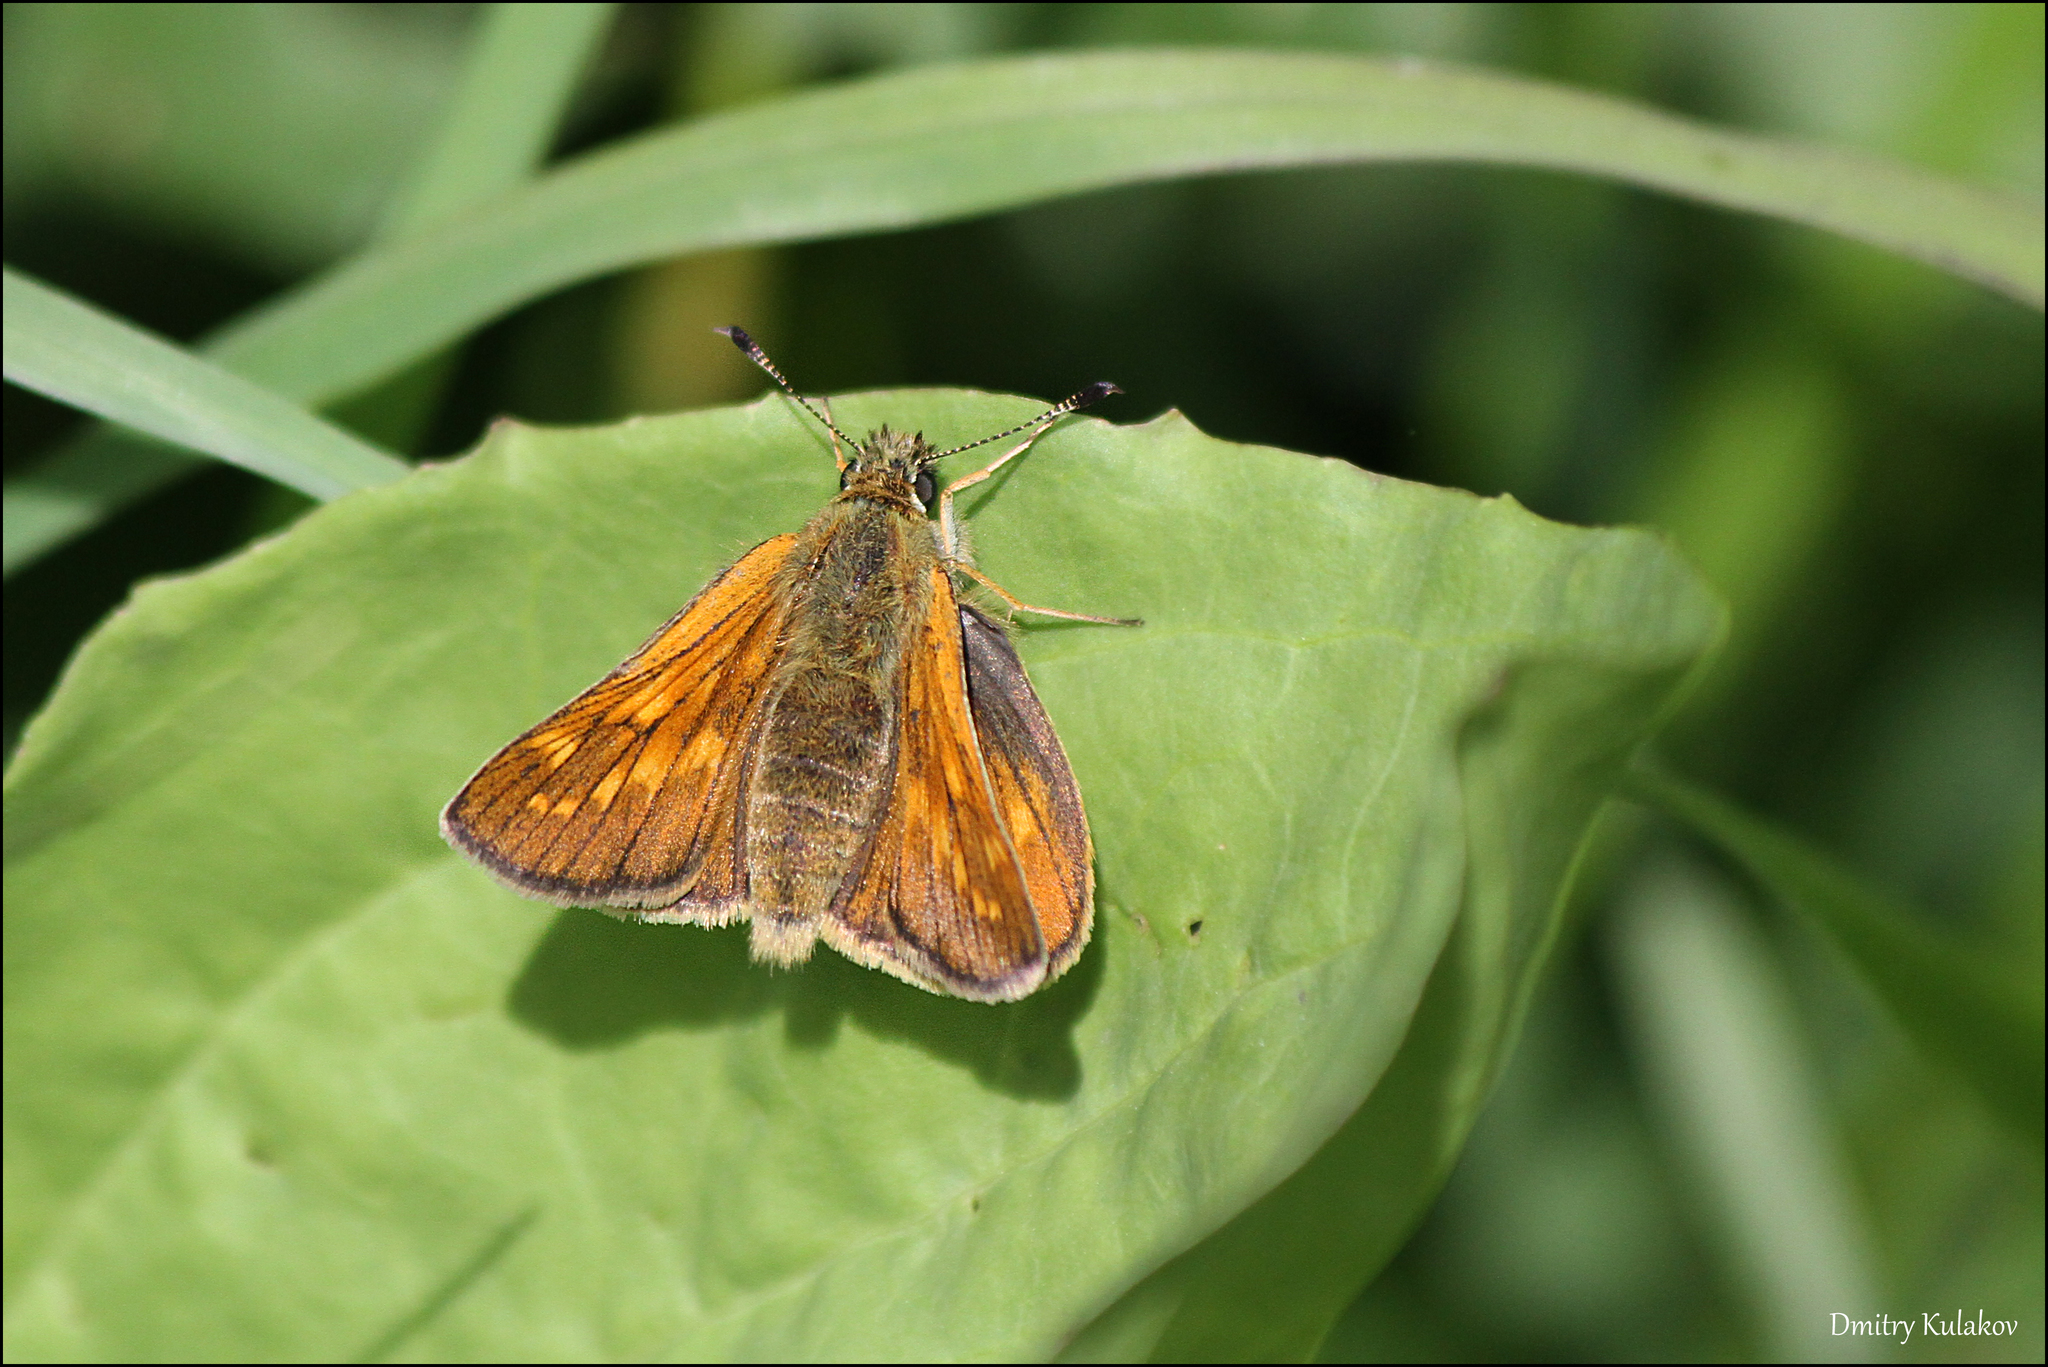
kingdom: Animalia
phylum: Arthropoda
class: Insecta
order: Lepidoptera
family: Hesperiidae
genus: Ochlodes
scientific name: Ochlodes venata
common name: Large skipper
